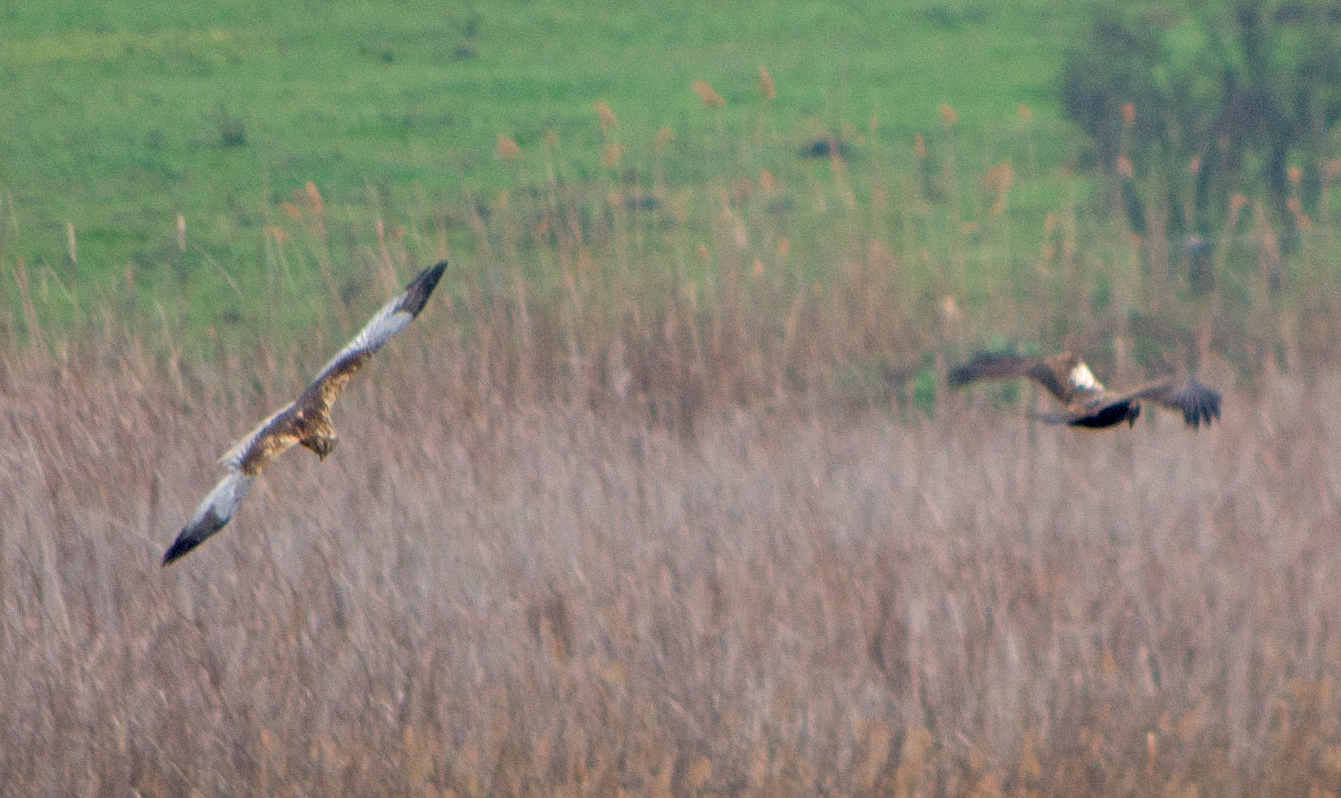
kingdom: Animalia
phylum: Chordata
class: Aves
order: Accipitriformes
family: Accipitridae
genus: Circus
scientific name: Circus aeruginosus
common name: Western marsh harrier
